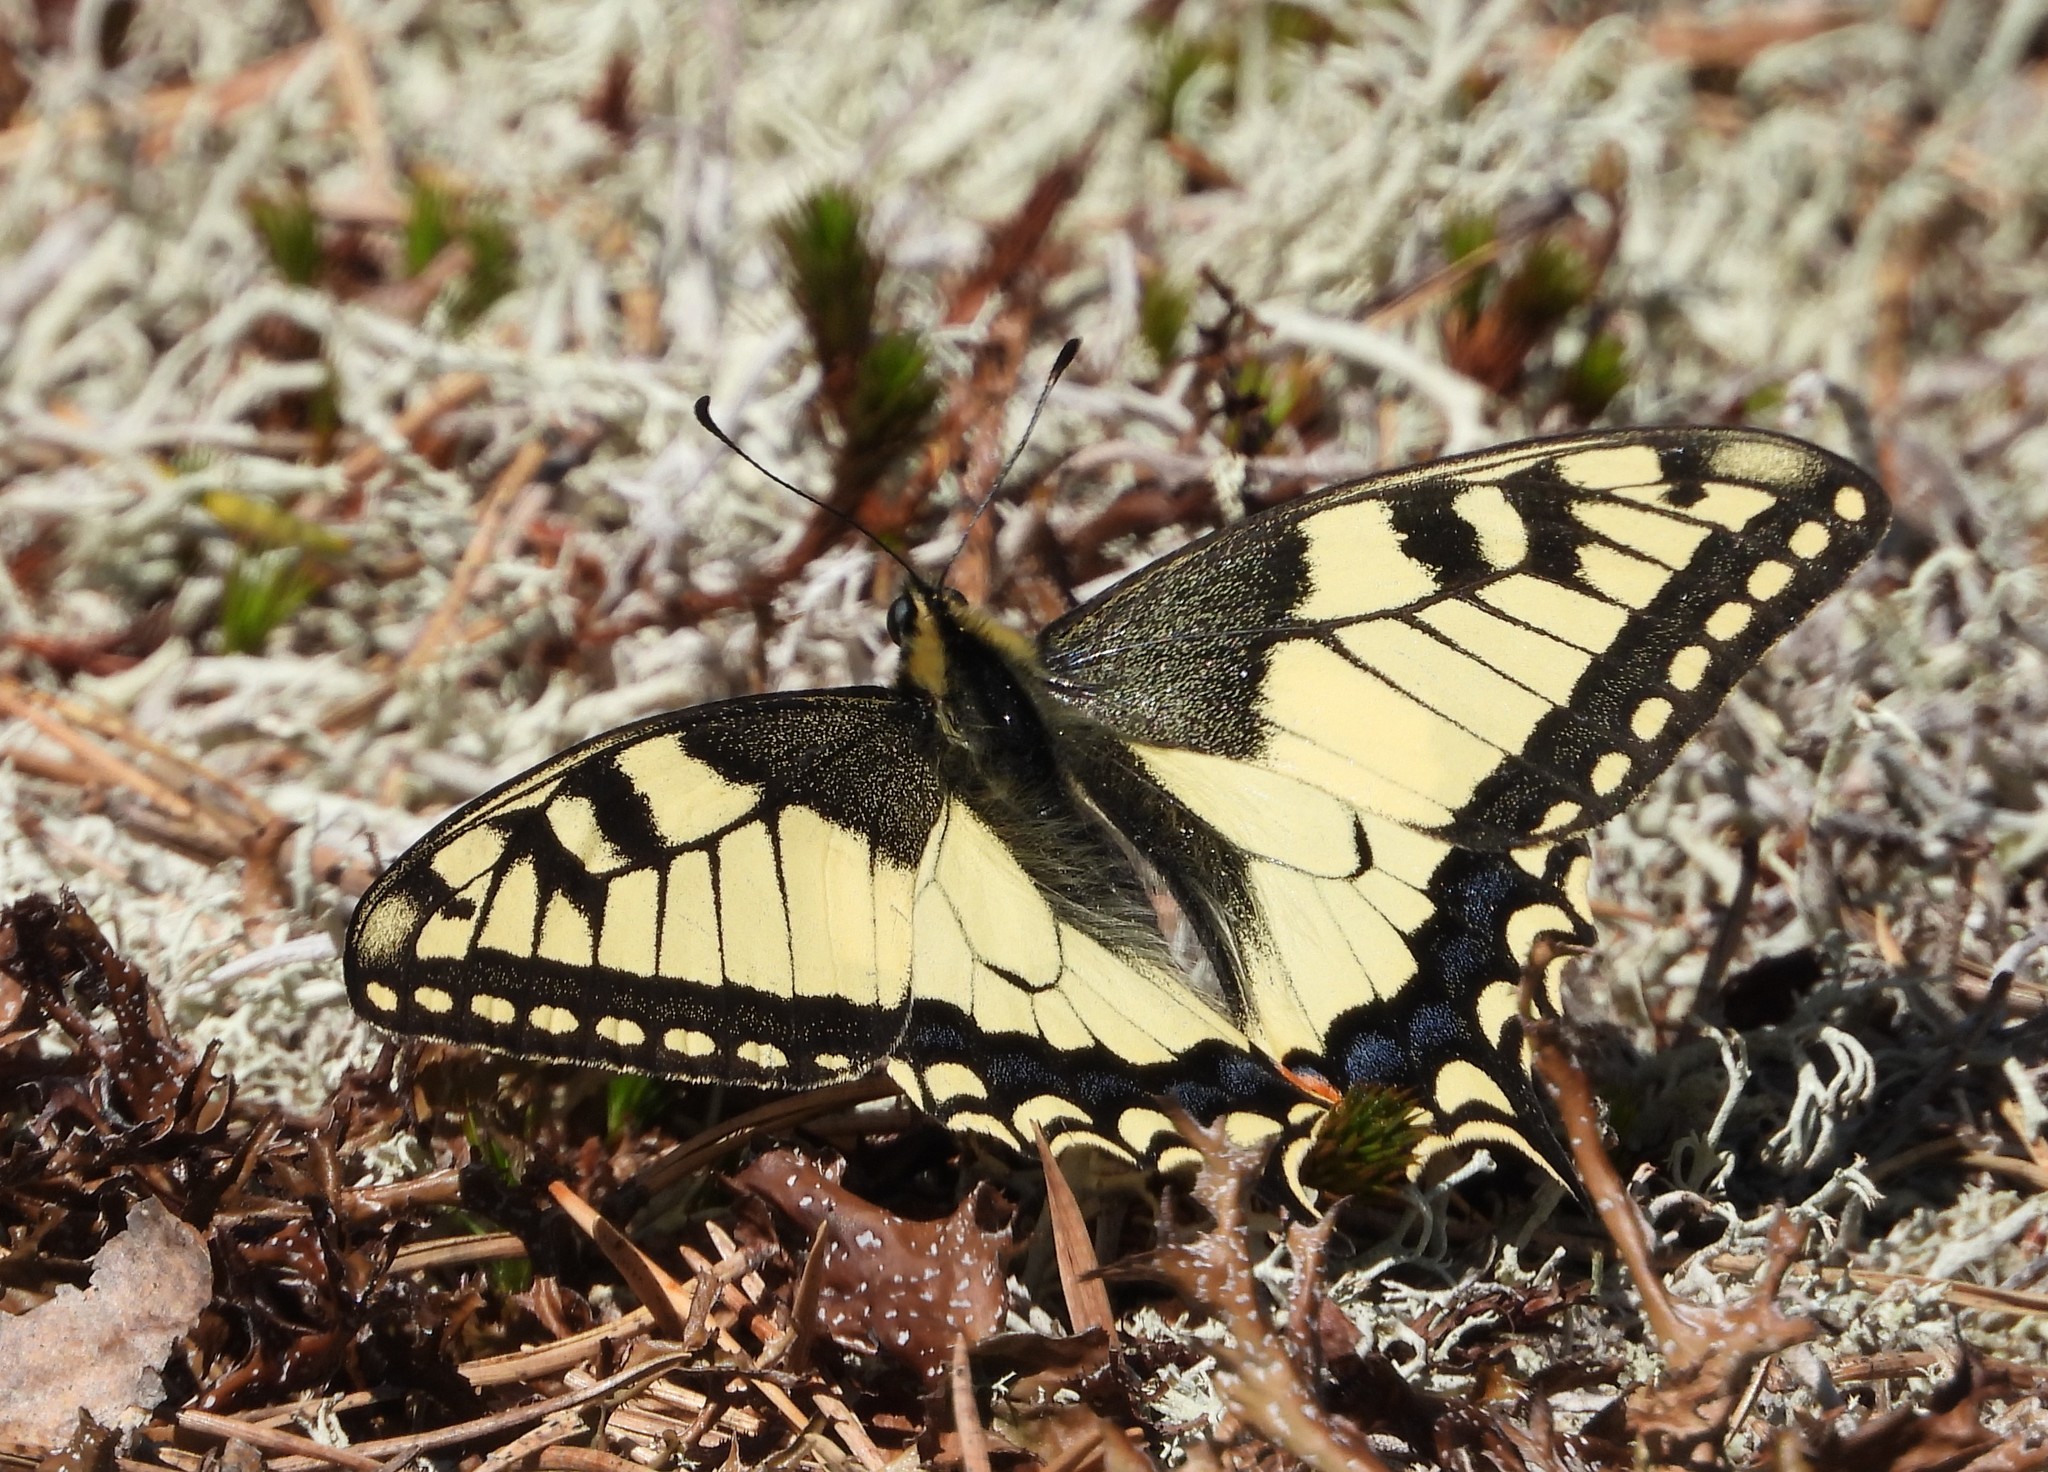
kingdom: Animalia
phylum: Arthropoda
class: Insecta
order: Lepidoptera
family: Papilionidae
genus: Papilio
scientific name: Papilio machaon
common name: Swallowtail
